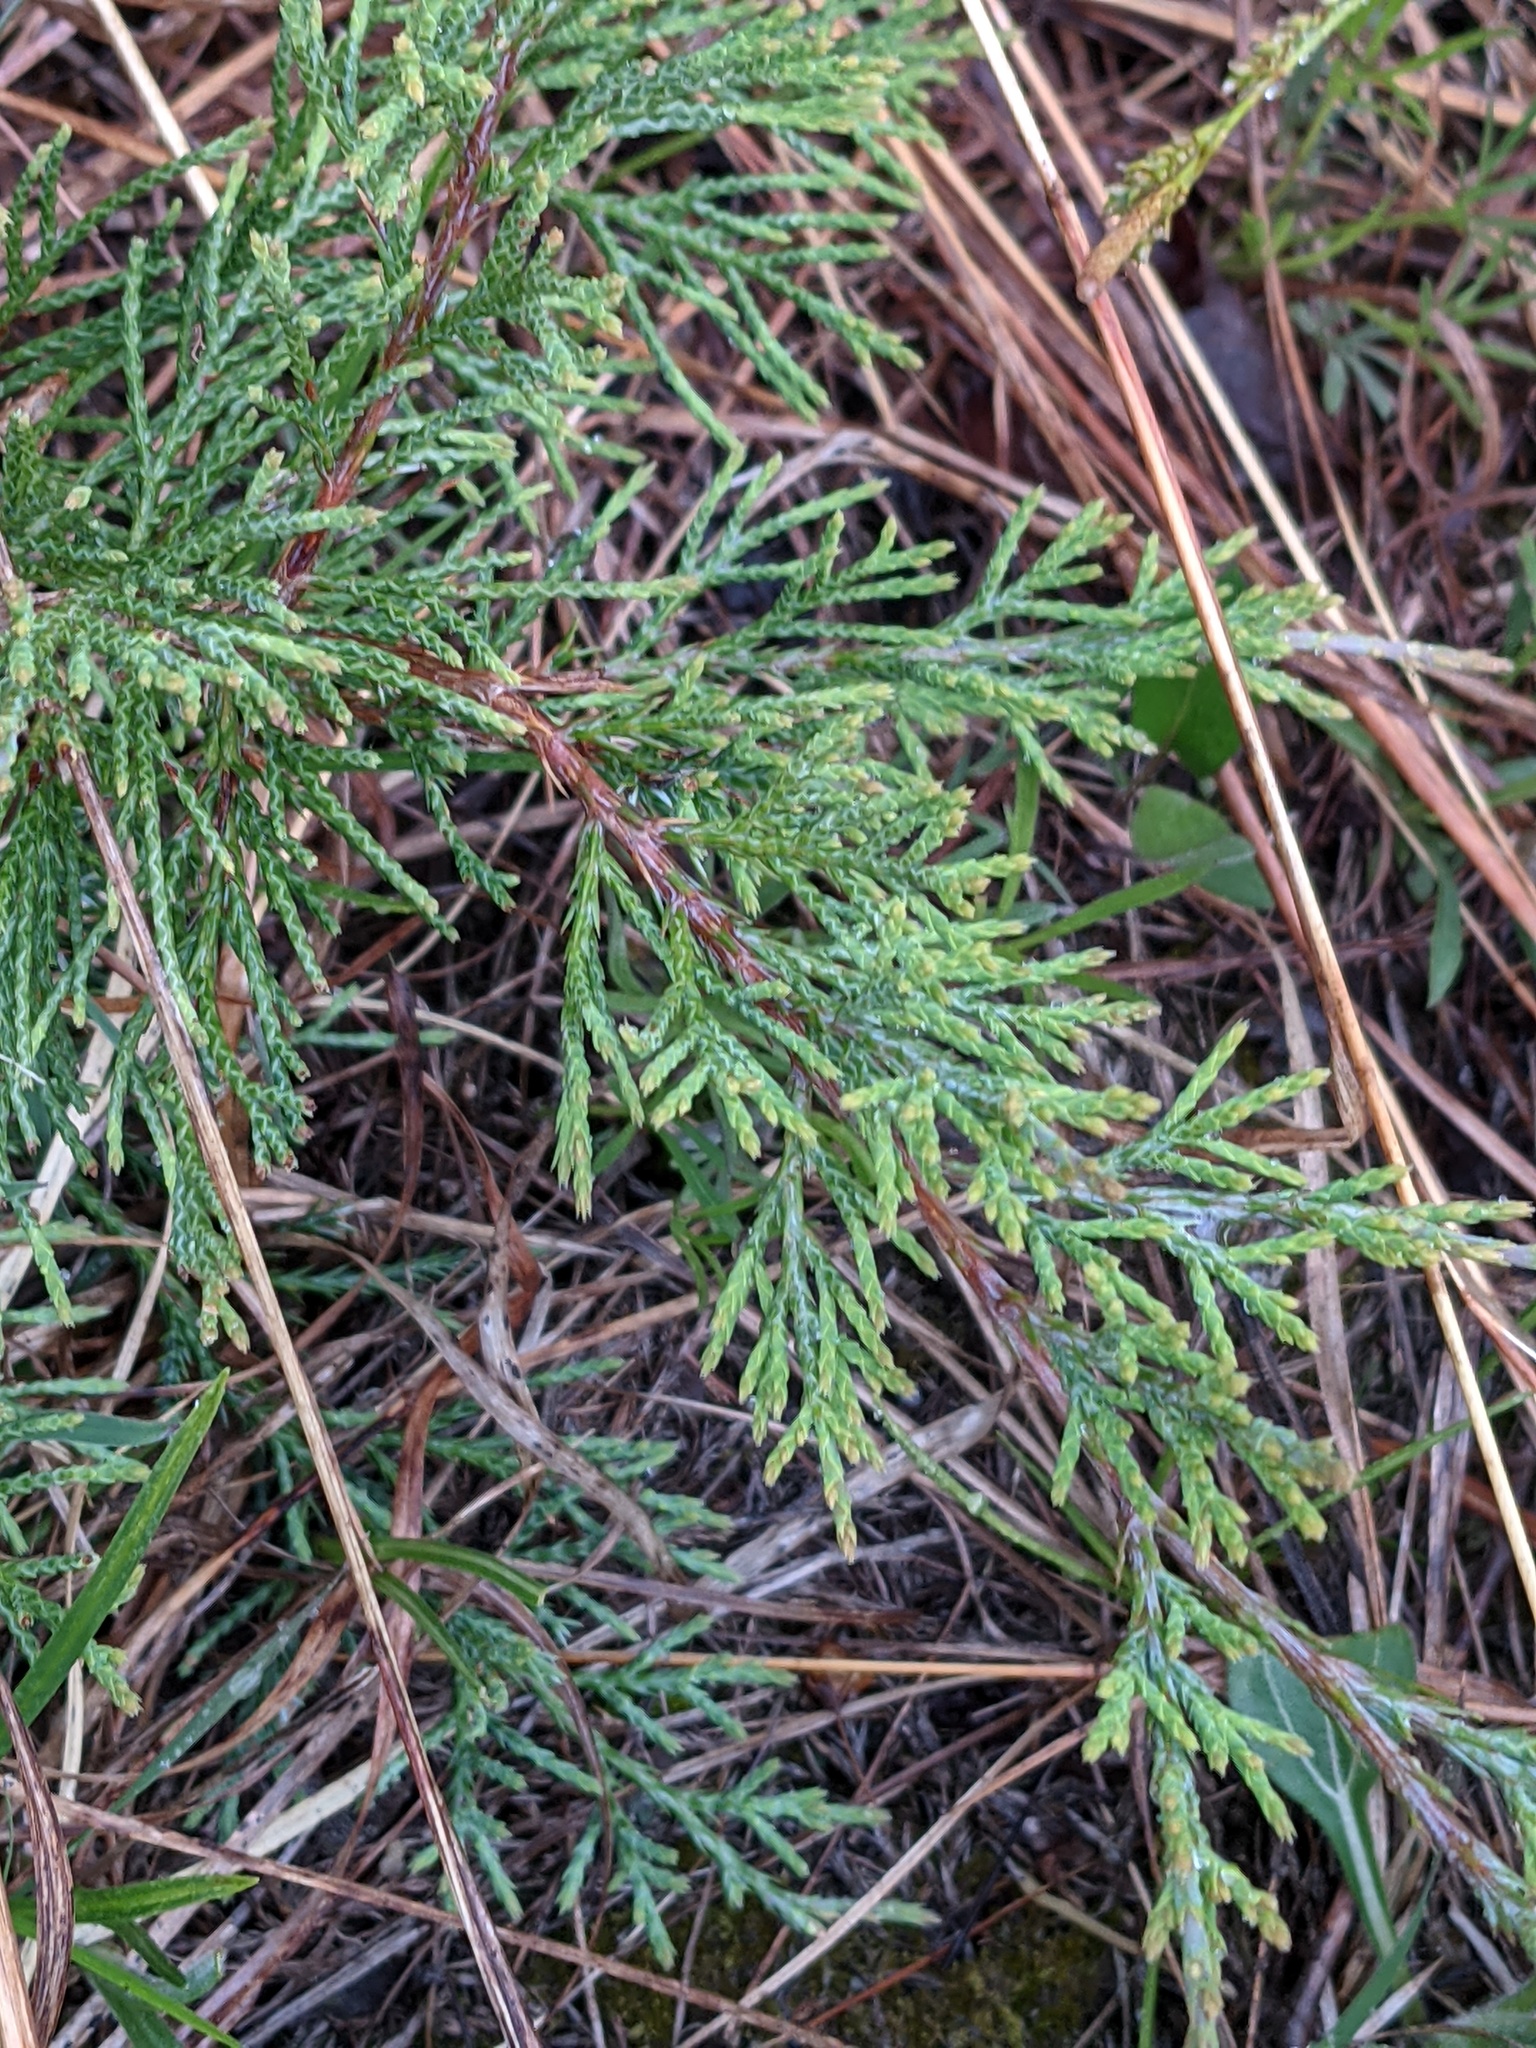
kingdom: Plantae
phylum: Tracheophyta
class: Pinopsida
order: Pinales
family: Cupressaceae
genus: Juniperus
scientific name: Juniperus virginiana
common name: Red juniper
